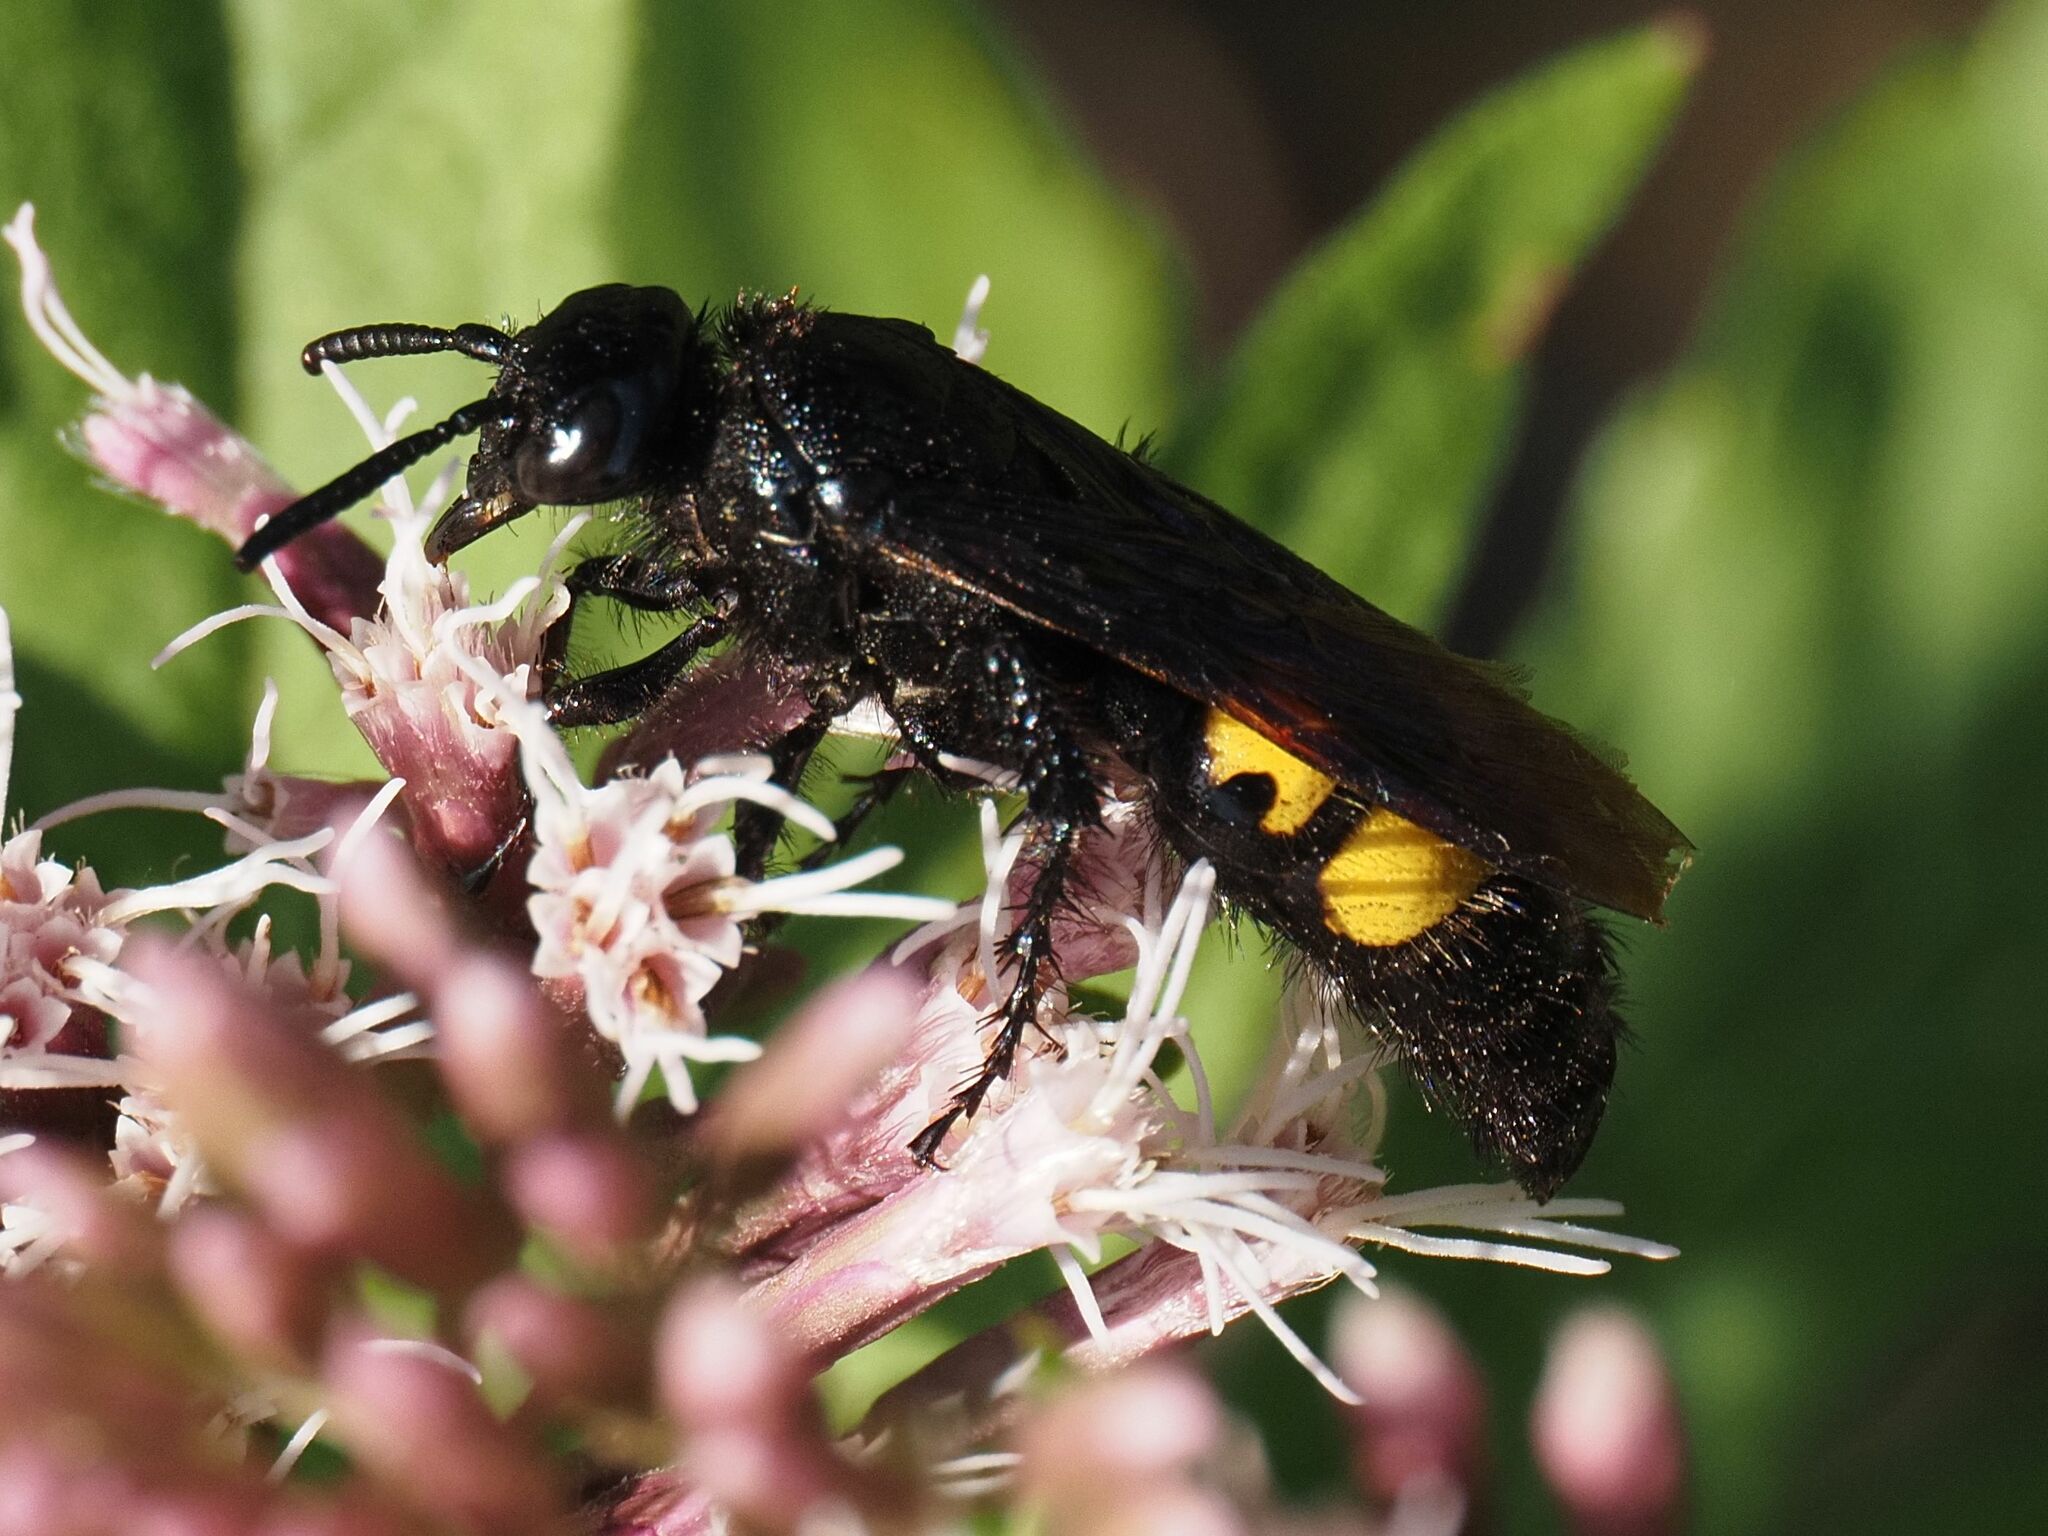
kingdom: Animalia
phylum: Arthropoda
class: Insecta
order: Hymenoptera
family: Scoliidae
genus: Scolia
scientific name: Scolia hirta
